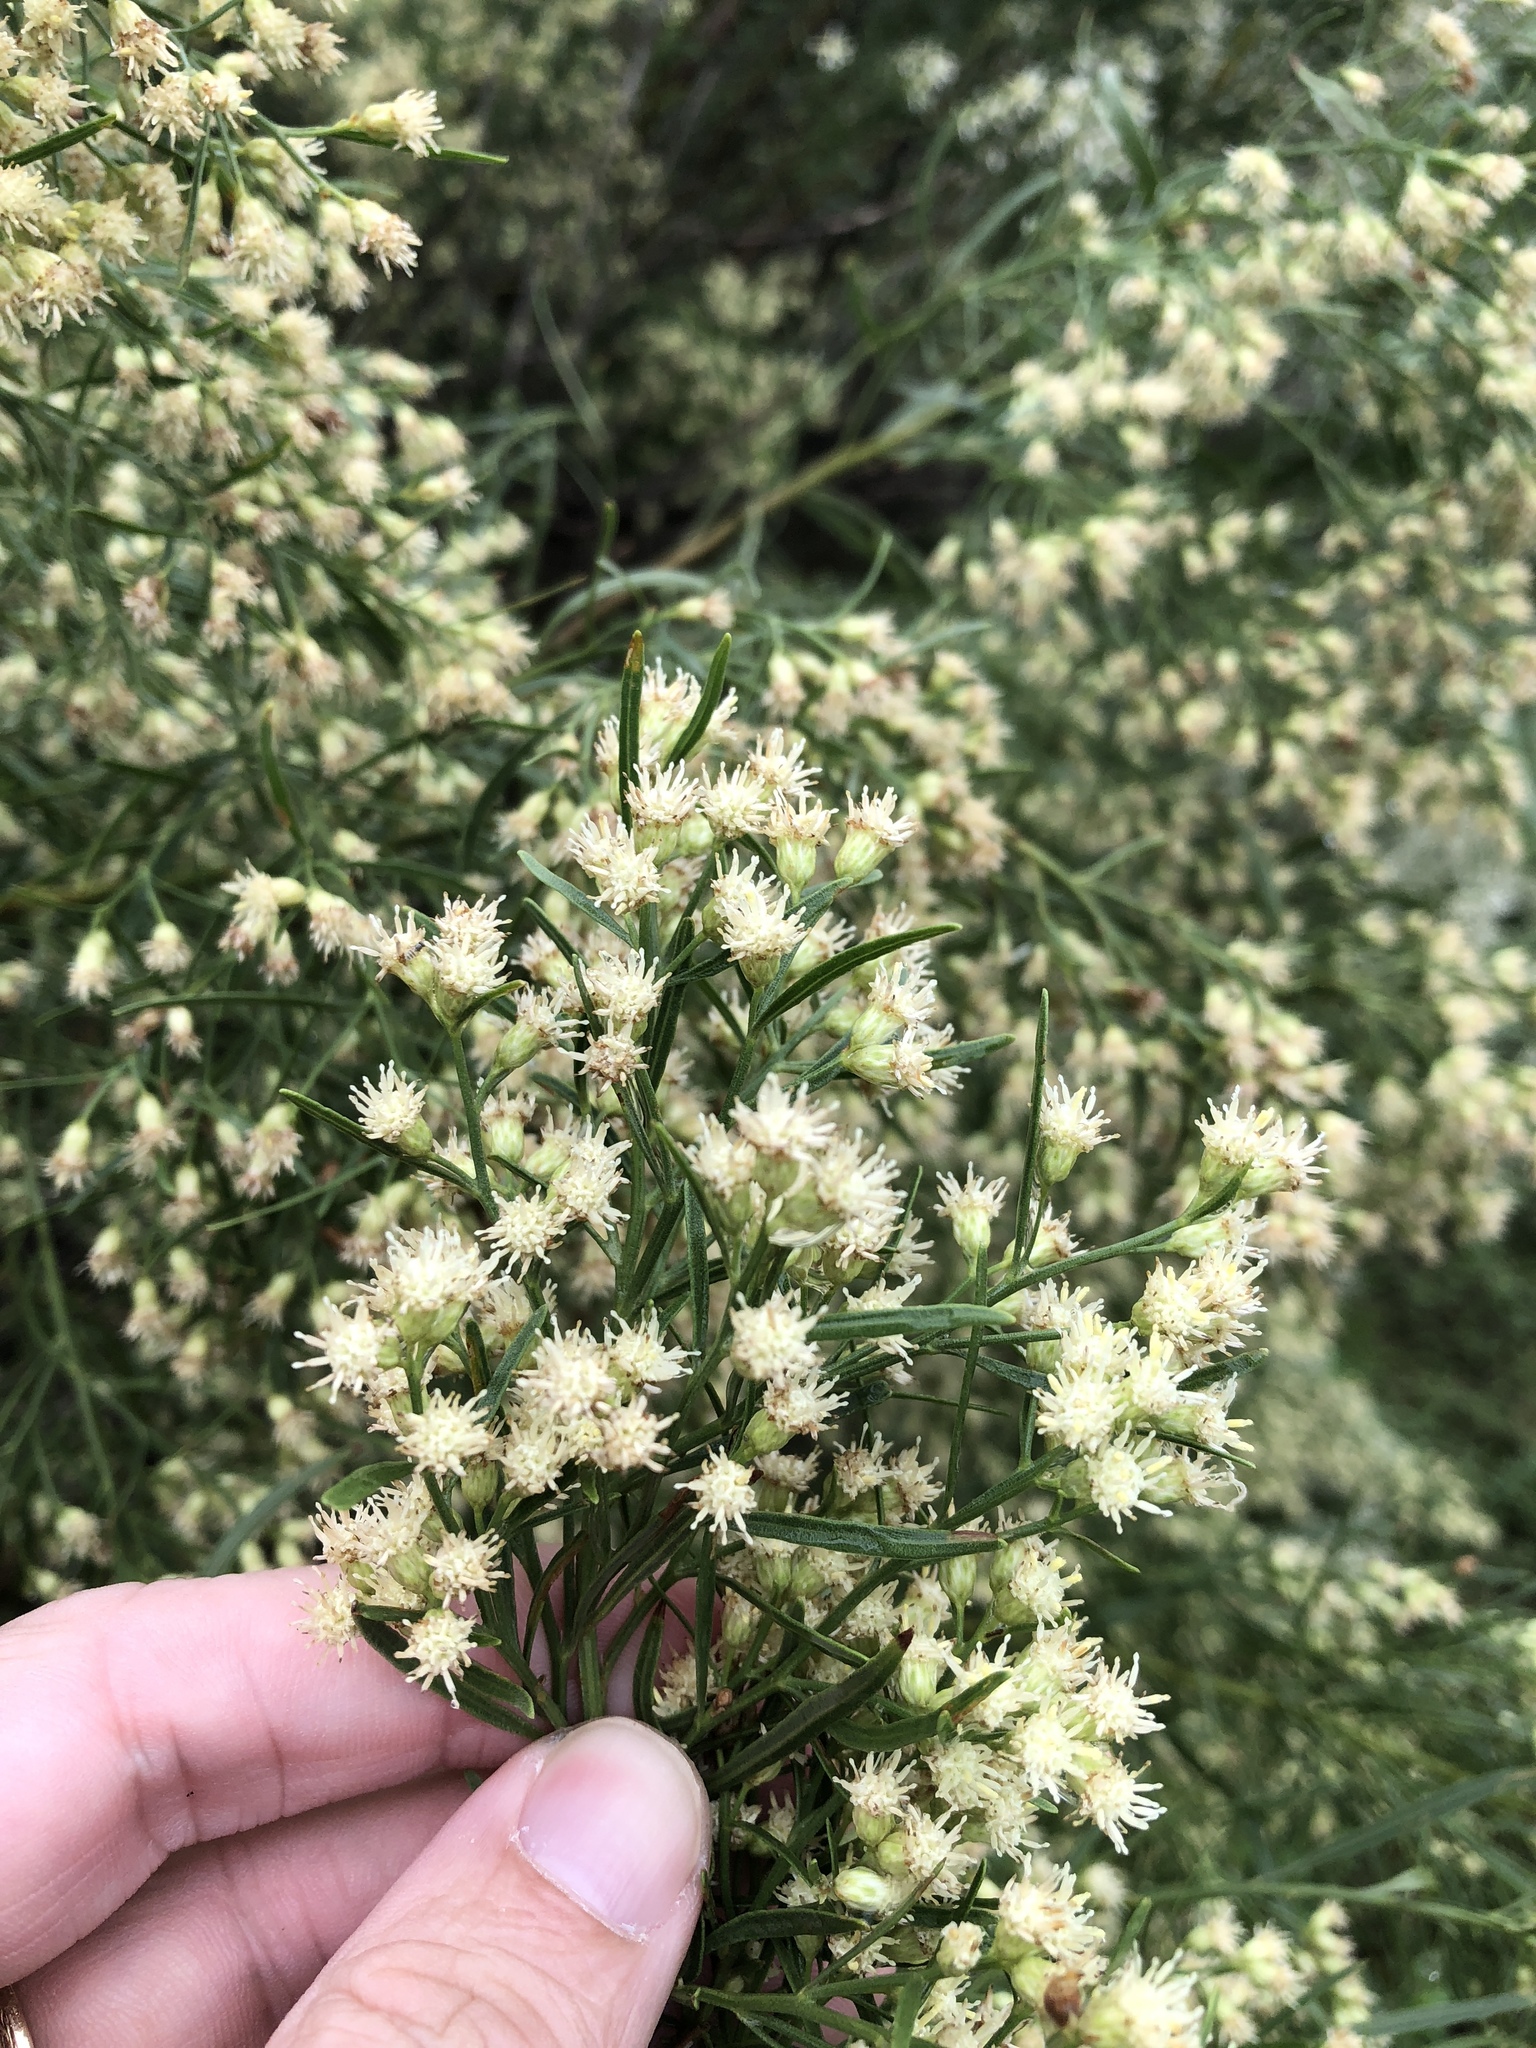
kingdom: Plantae
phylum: Tracheophyta
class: Magnoliopsida
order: Asterales
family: Asteraceae
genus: Baccharis
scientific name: Baccharis neglecta
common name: Roosevelt-weed
